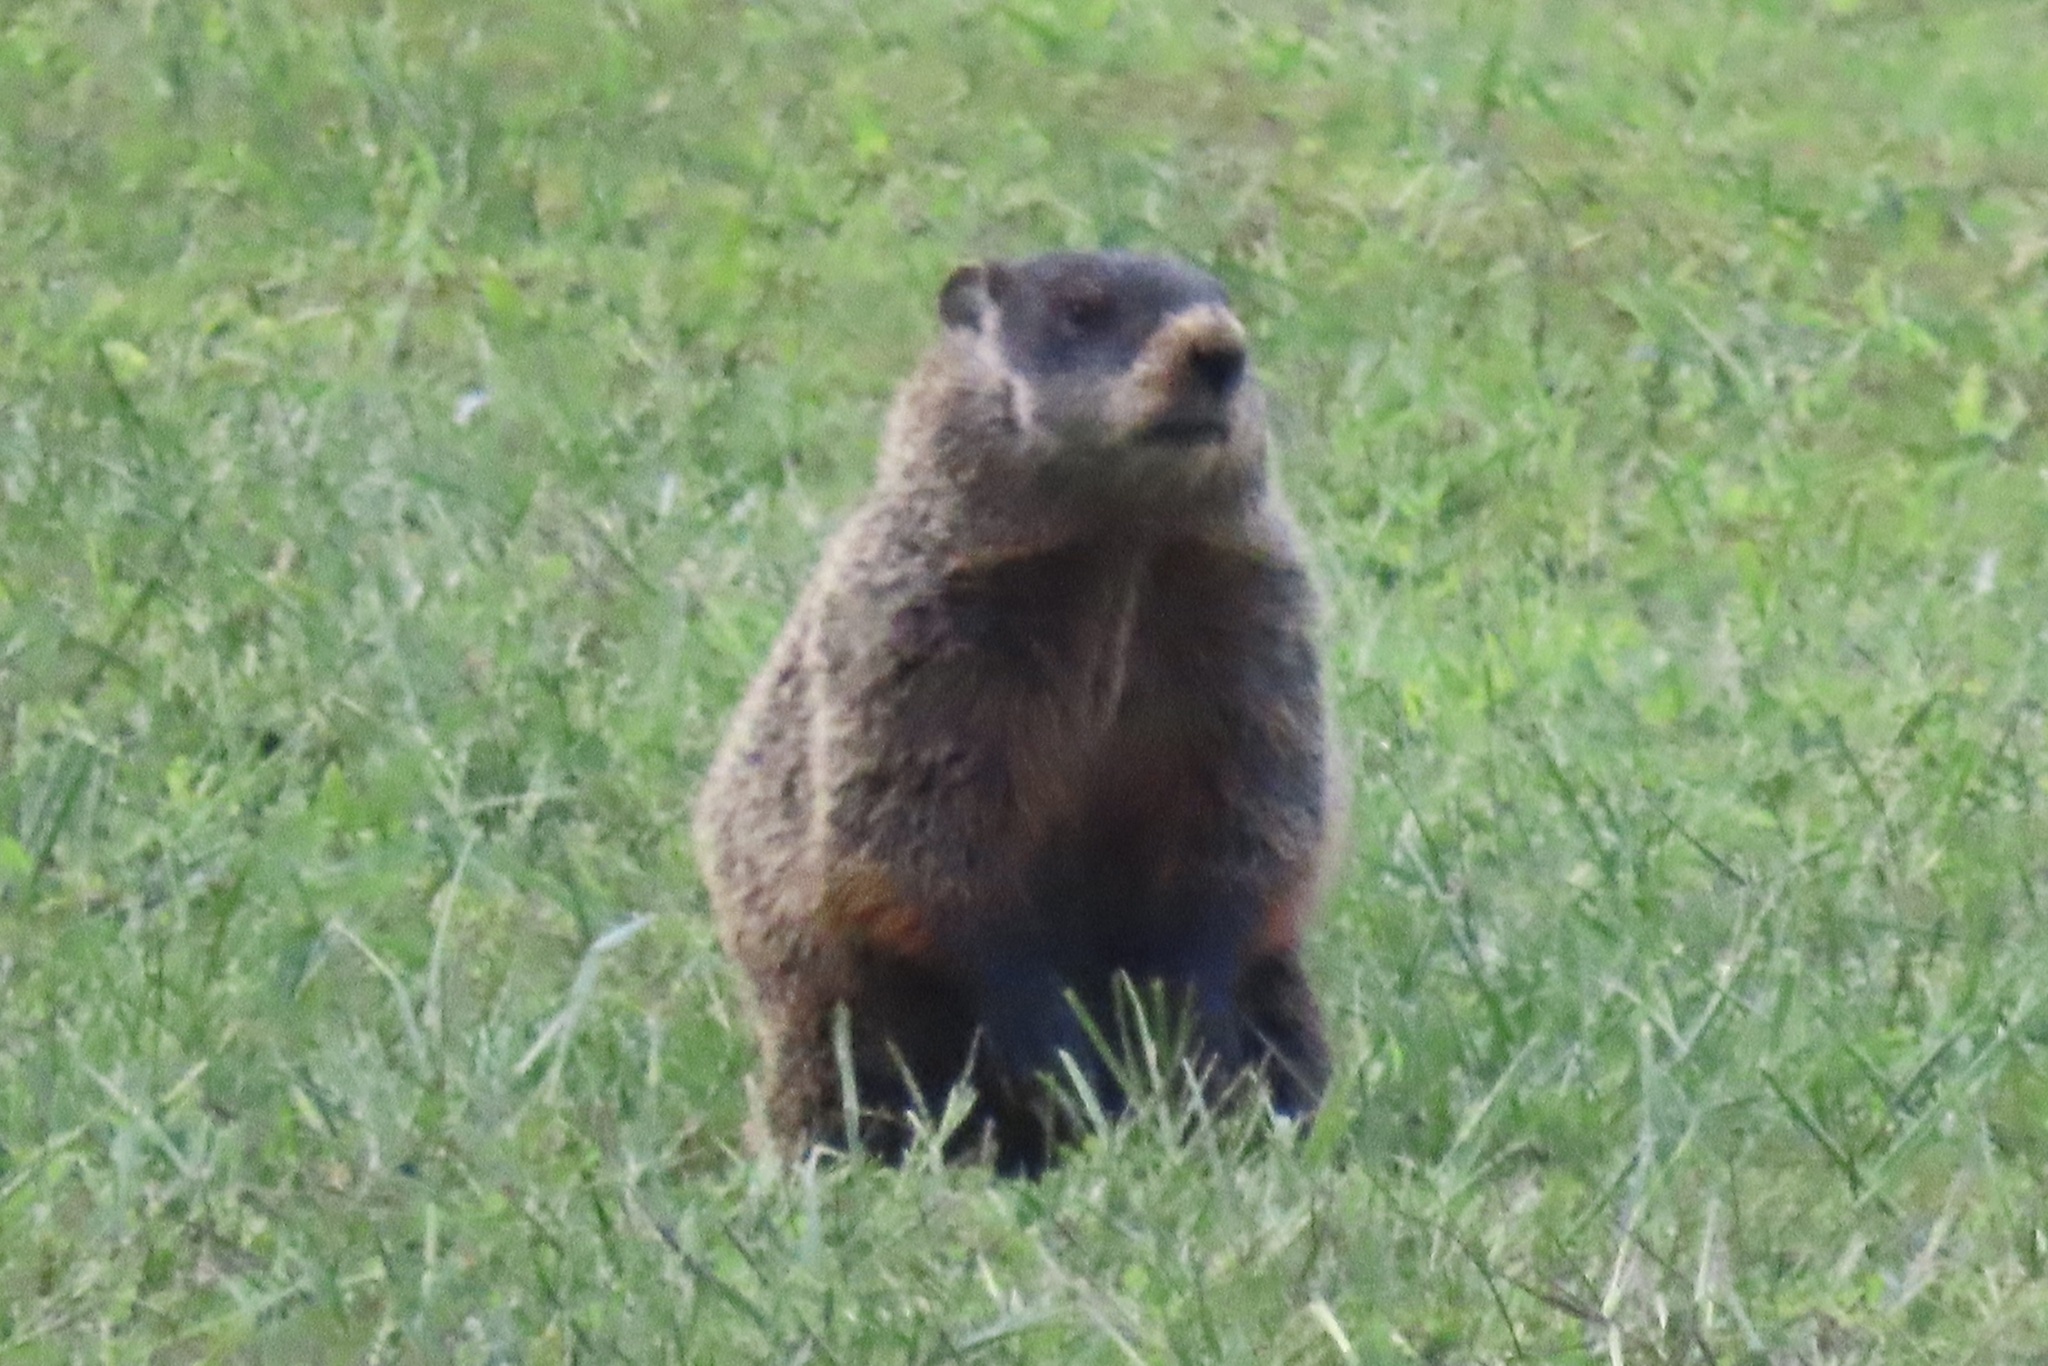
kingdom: Animalia
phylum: Chordata
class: Mammalia
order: Rodentia
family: Sciuridae
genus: Marmota
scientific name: Marmota monax
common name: Groundhog
